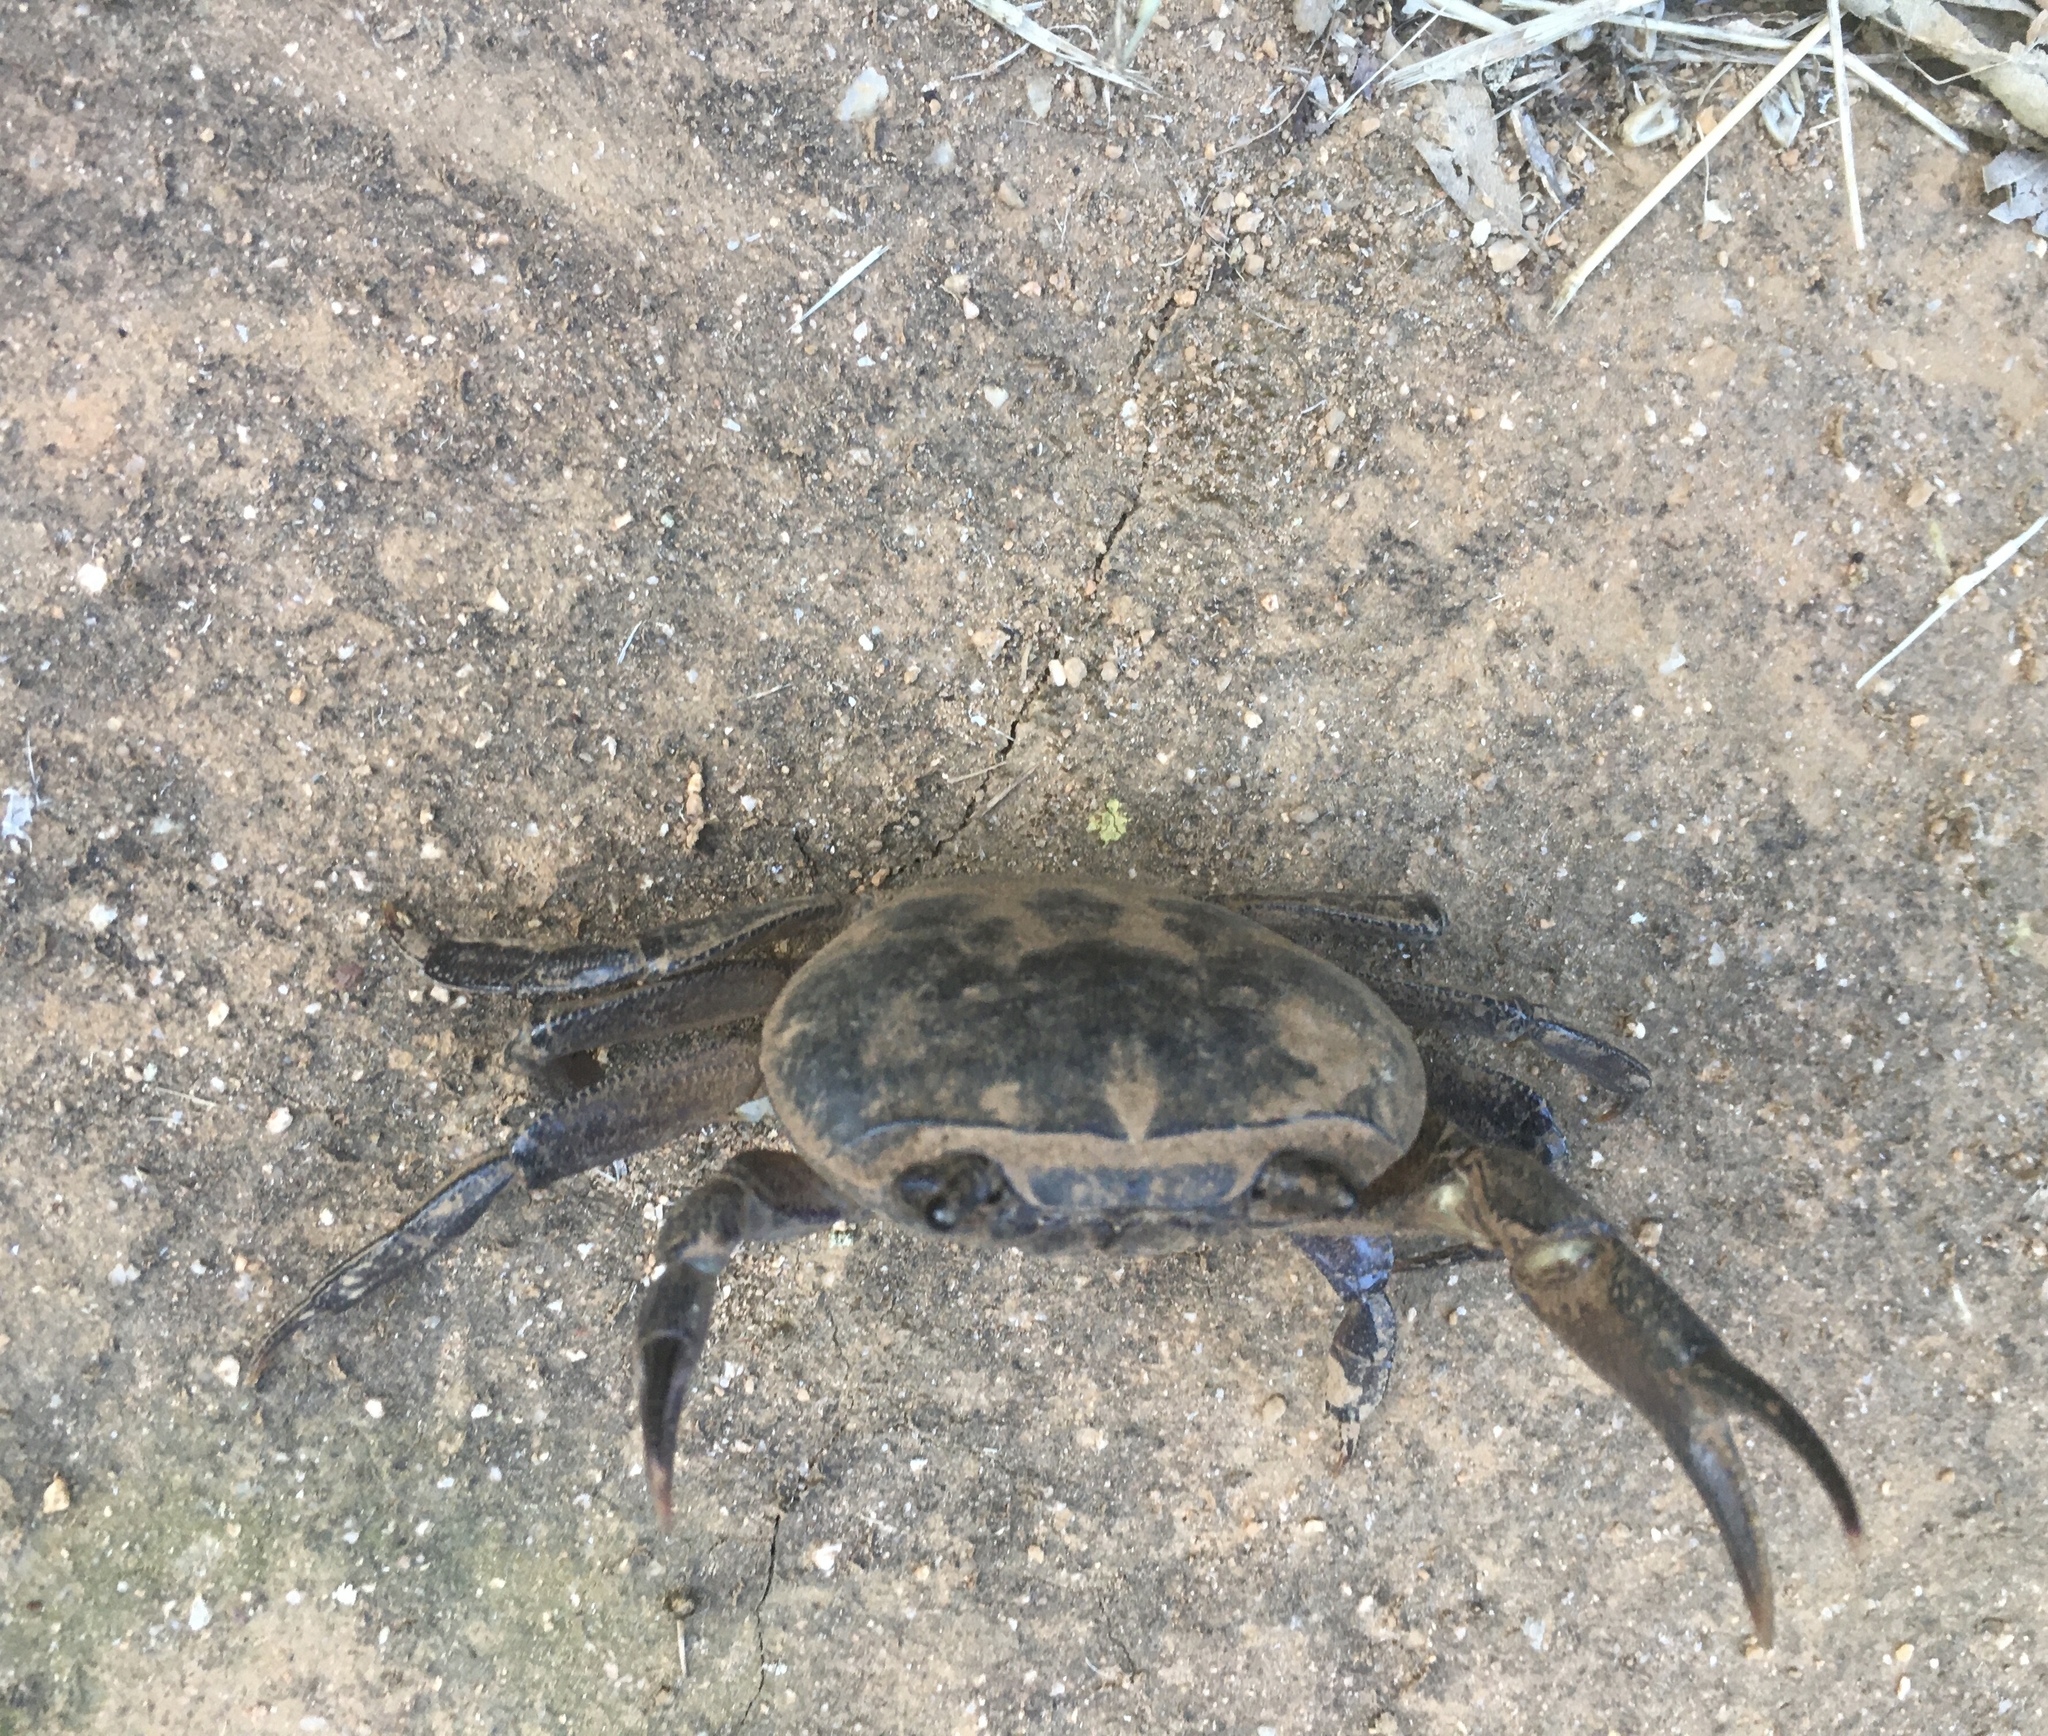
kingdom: Animalia
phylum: Arthropoda
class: Malacostraca
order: Decapoda
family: Potamonautidae
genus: Potamonautes
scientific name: Potamonautes perlatus
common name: Cape river crab
